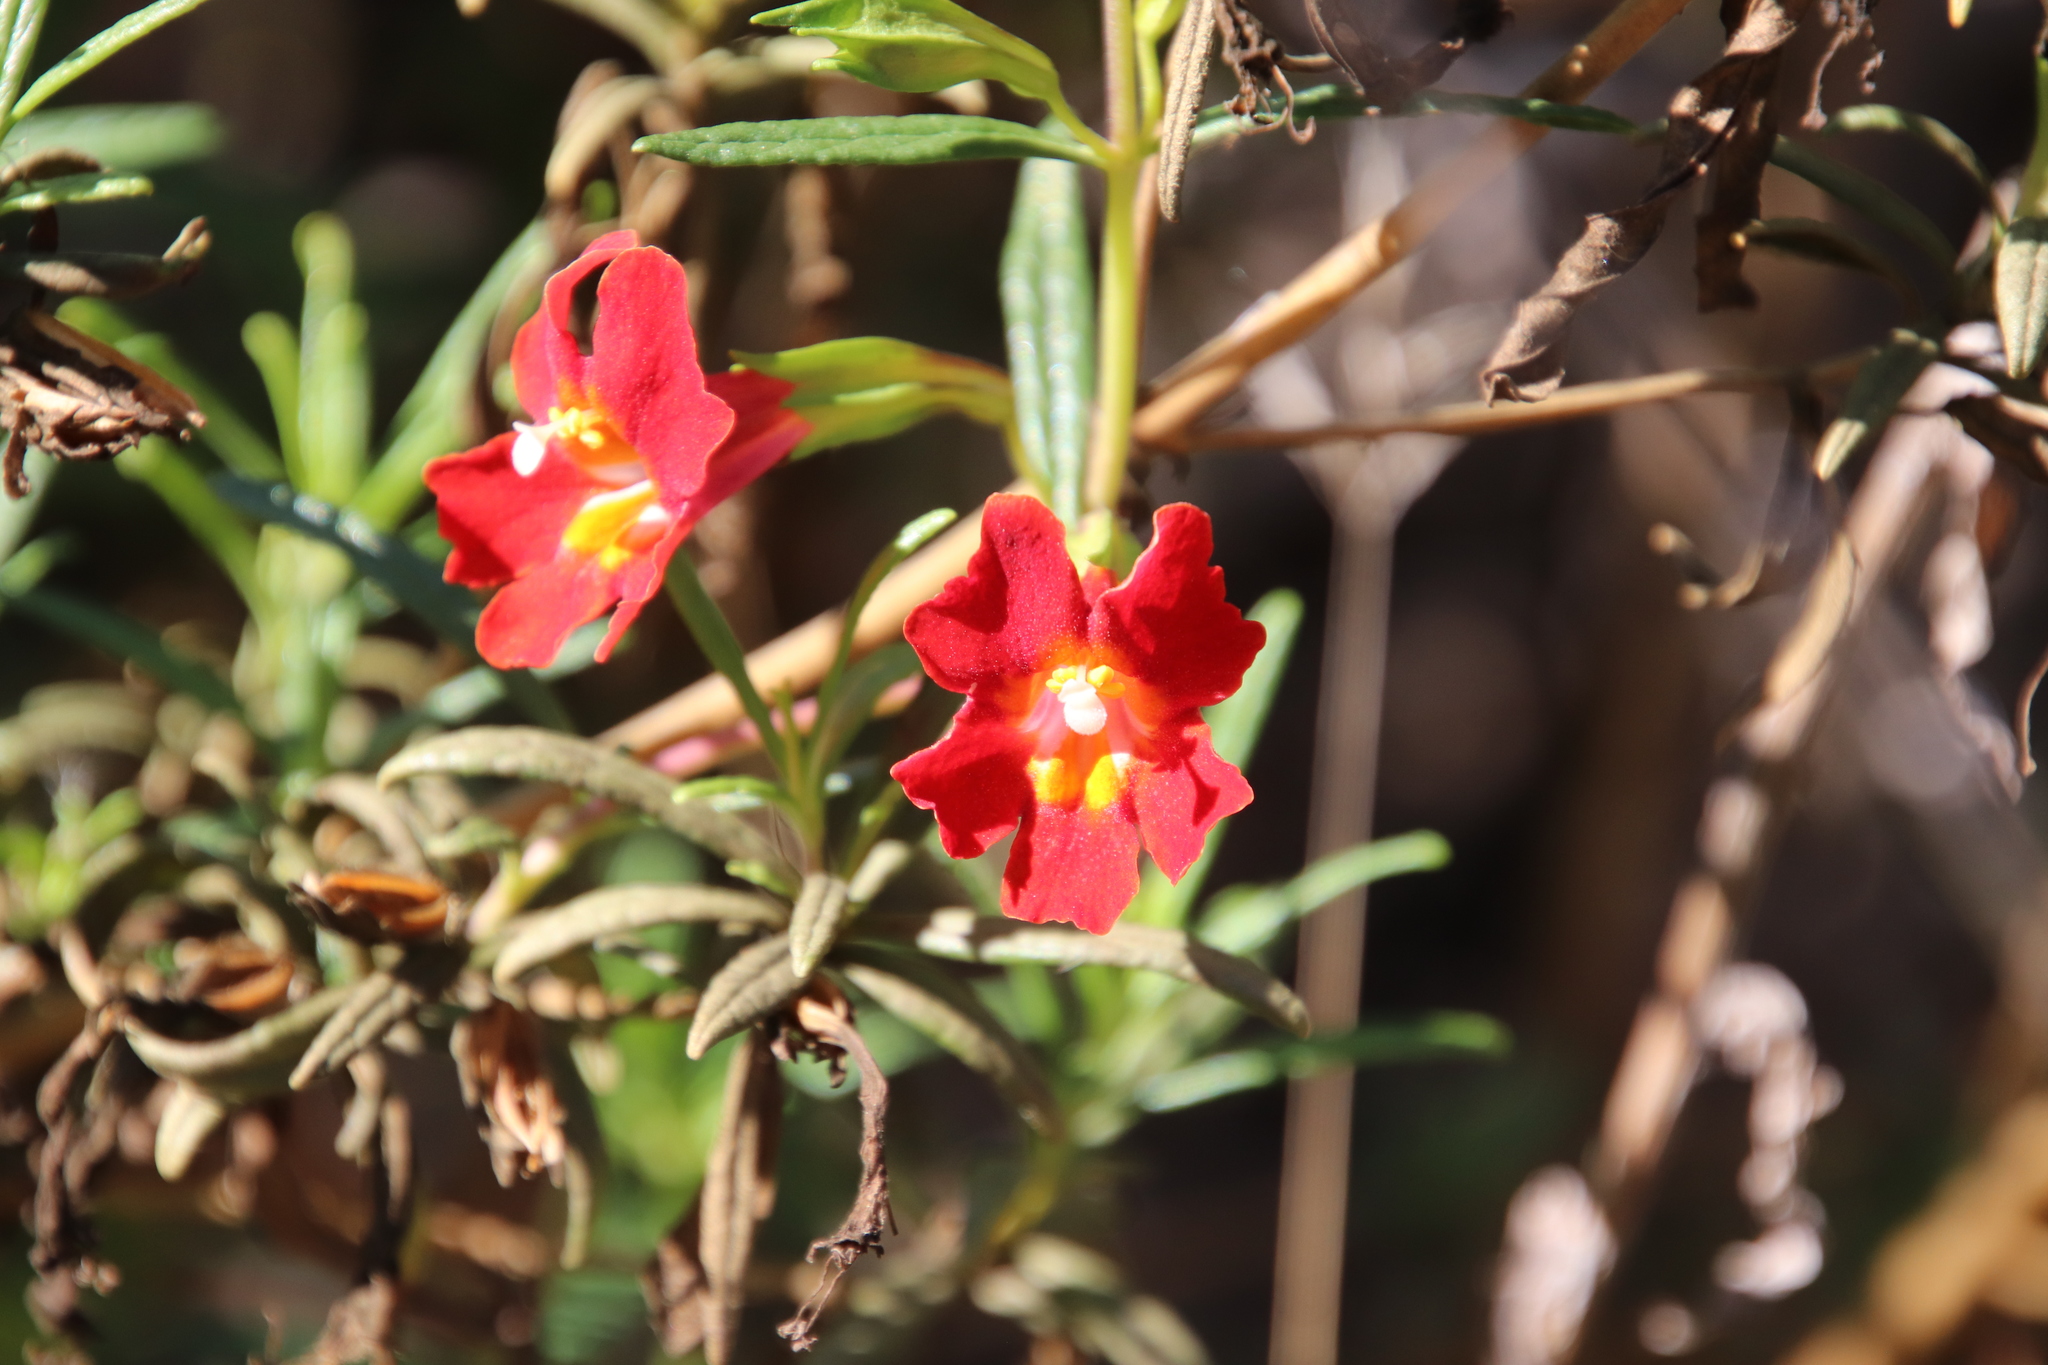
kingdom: Plantae
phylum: Tracheophyta
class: Magnoliopsida
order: Lamiales
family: Phrymaceae
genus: Diplacus
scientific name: Diplacus puniceus
